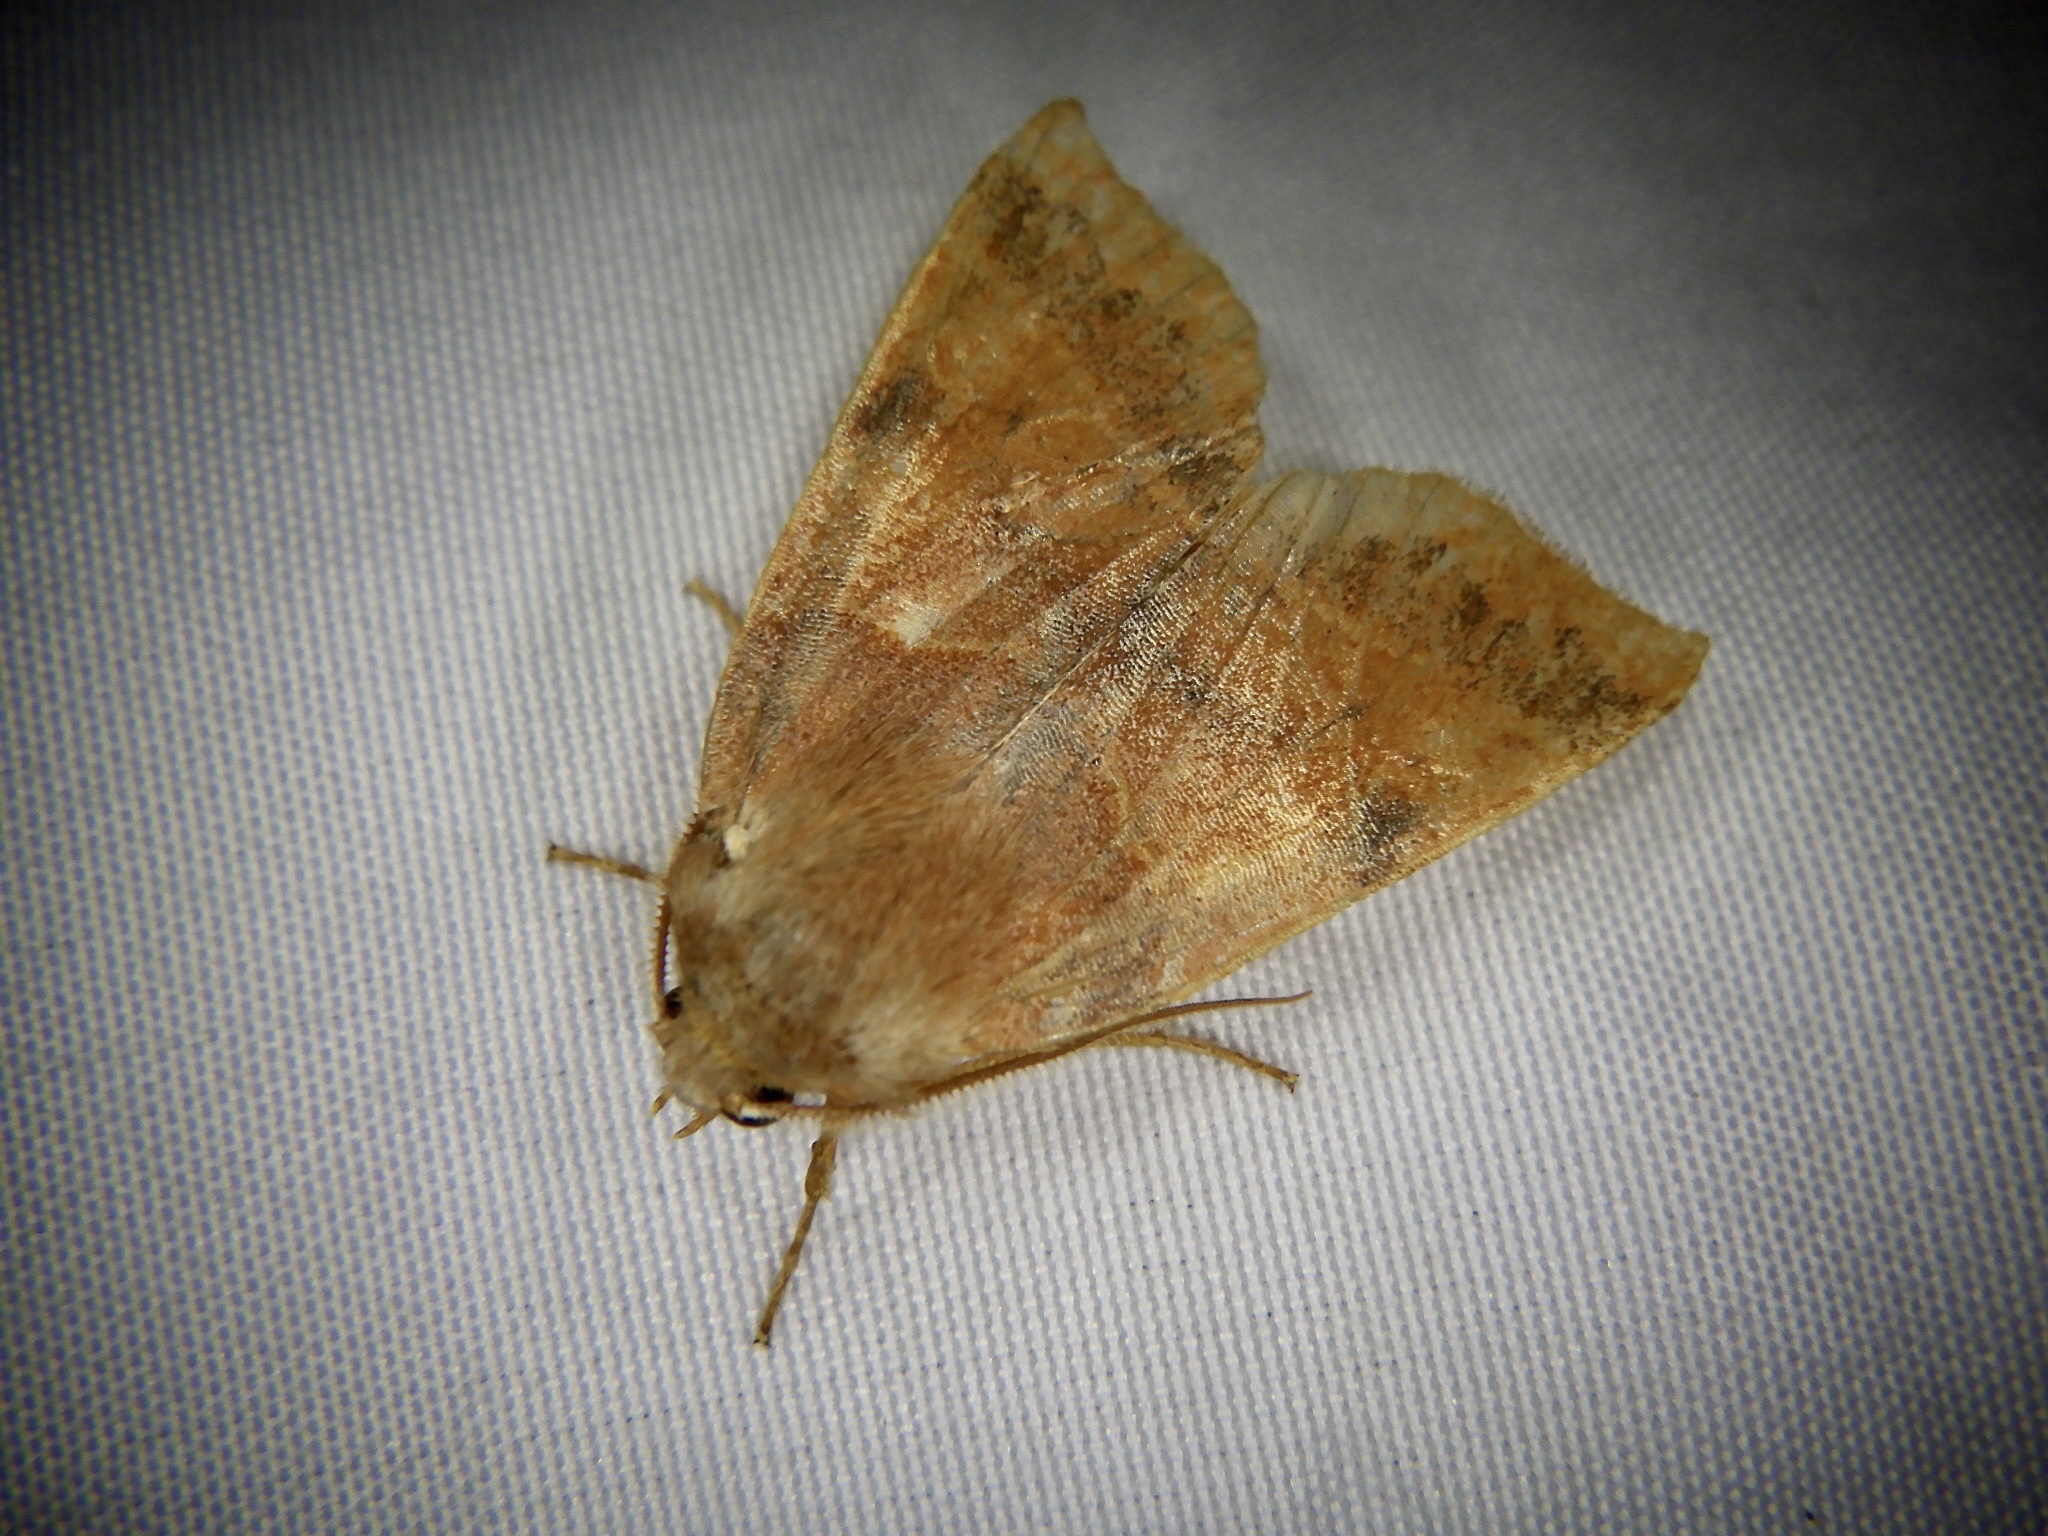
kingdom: Animalia
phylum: Arthropoda
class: Insecta
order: Lepidoptera
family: Noctuidae
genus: Telorta
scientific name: Telorta edentata
